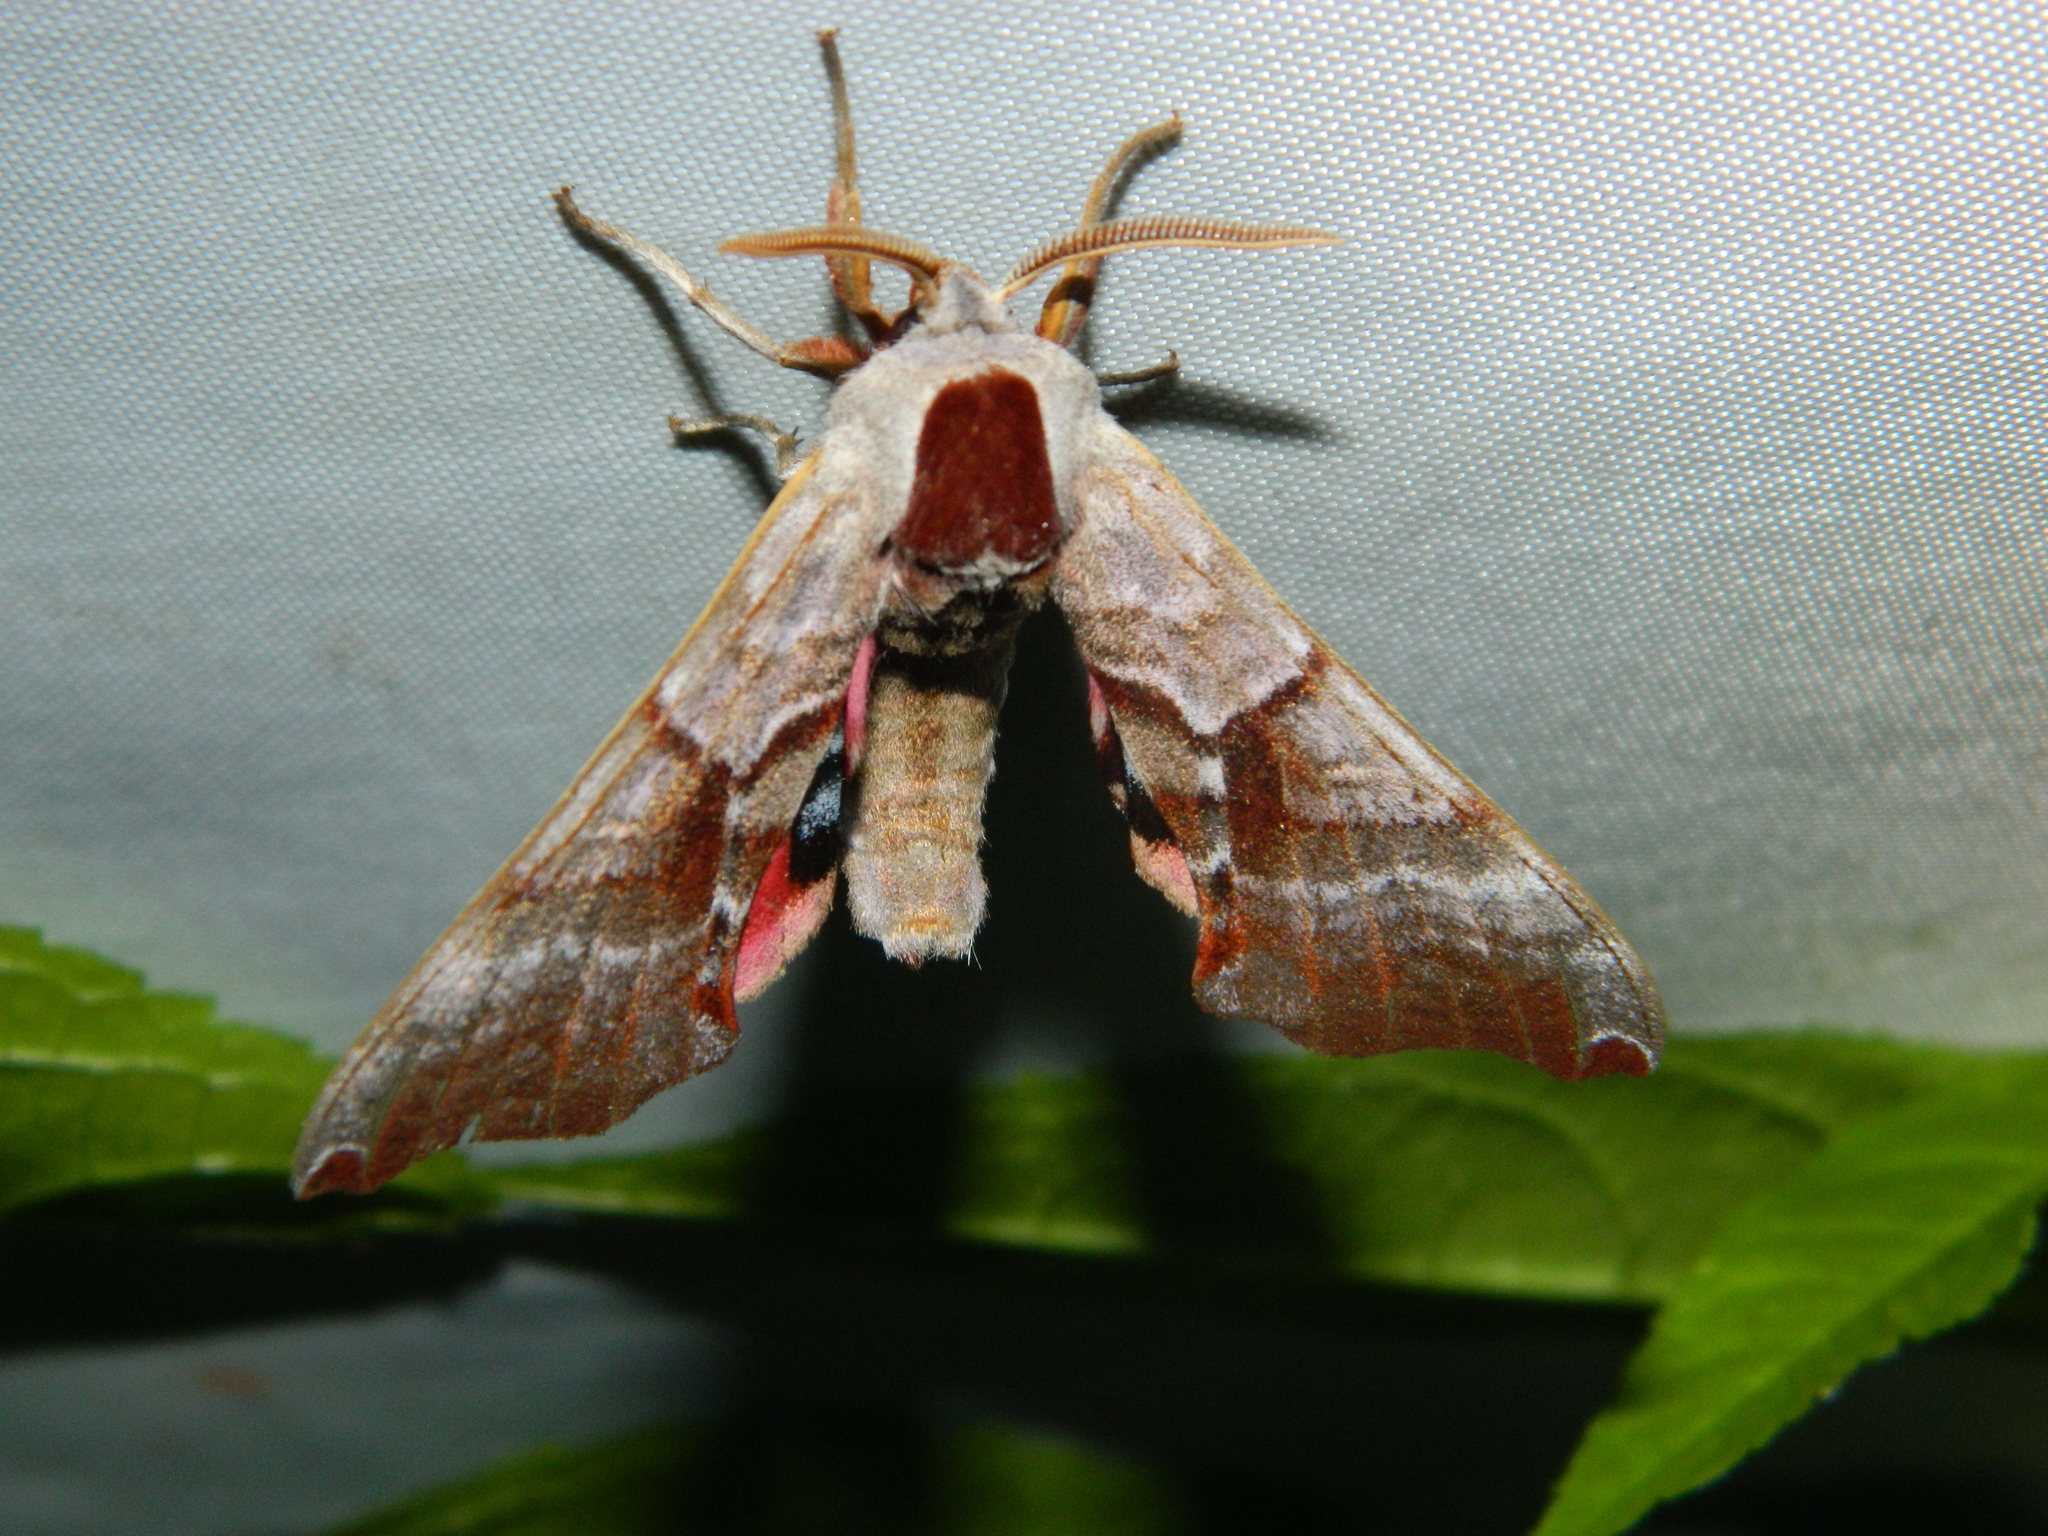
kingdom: Animalia
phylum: Arthropoda
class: Insecta
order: Lepidoptera
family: Sphingidae
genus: Smerinthus
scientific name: Smerinthus jamaicensis
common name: Twin spotted sphinx
